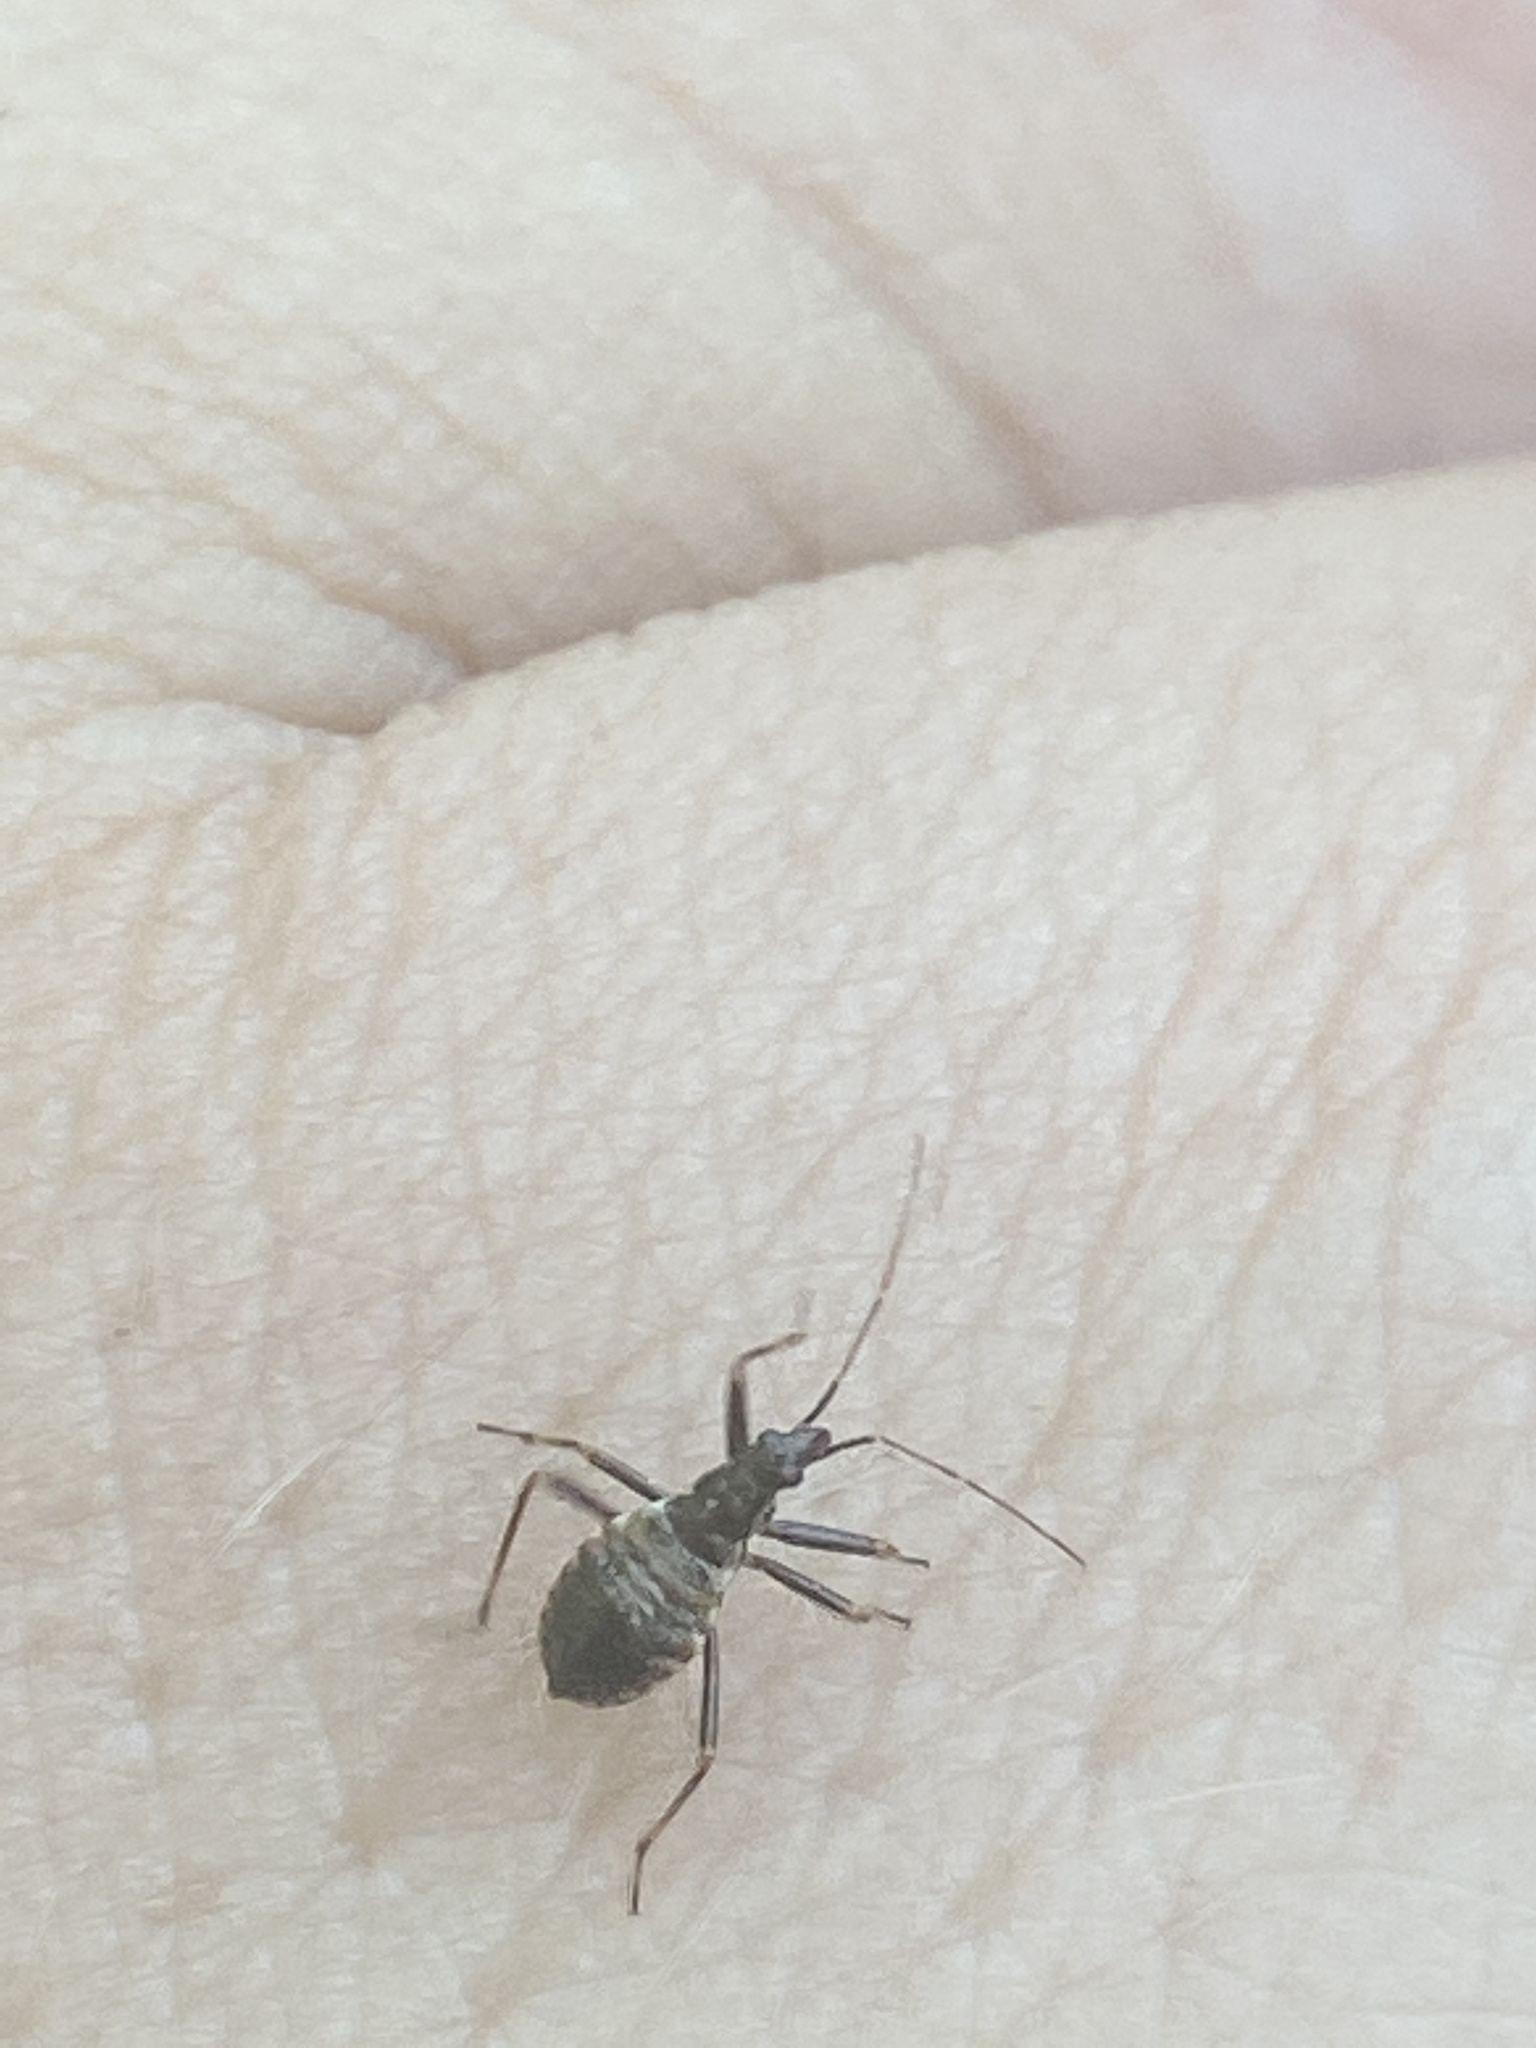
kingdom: Animalia
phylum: Arthropoda
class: Insecta
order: Hemiptera
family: Nabidae
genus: Himacerus
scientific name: Himacerus apterus
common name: Tree damsel bug
